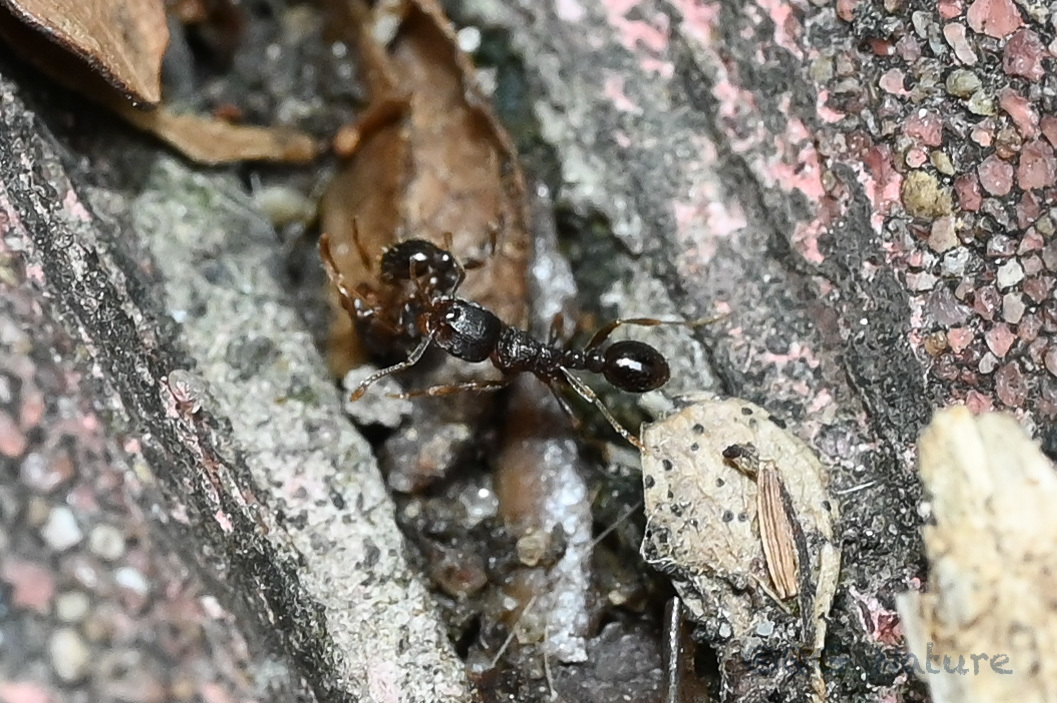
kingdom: Animalia
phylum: Arthropoda
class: Insecta
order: Hymenoptera
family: Formicidae
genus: Tetramorium
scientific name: Tetramorium
